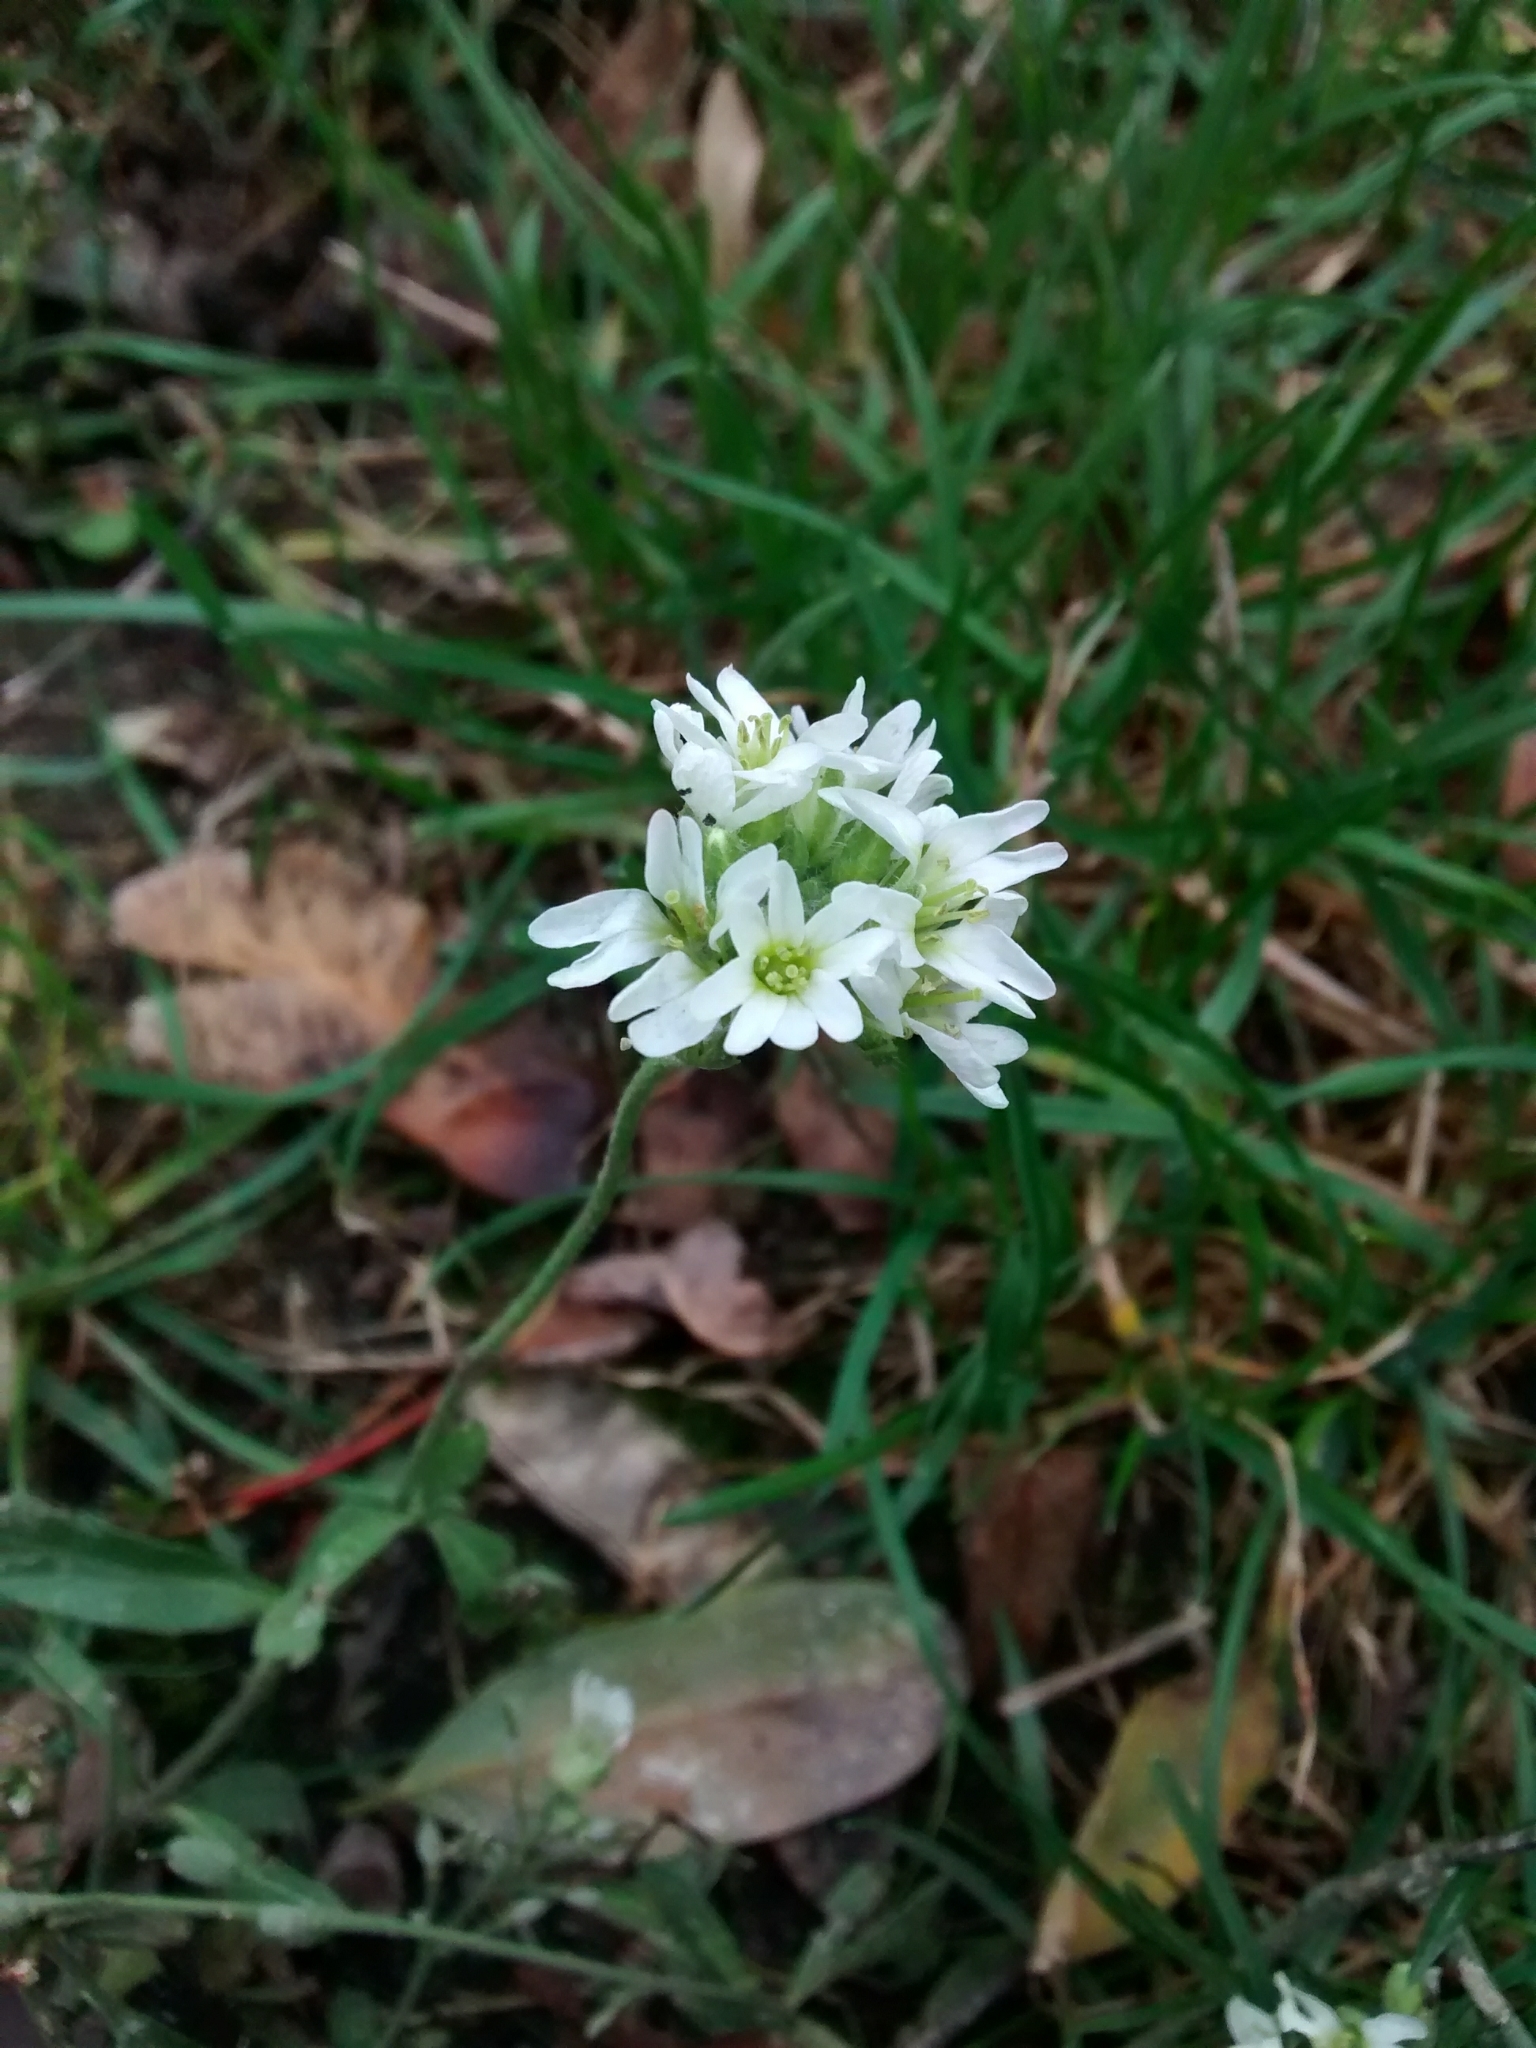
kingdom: Plantae
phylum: Tracheophyta
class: Magnoliopsida
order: Brassicales
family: Brassicaceae
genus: Berteroa
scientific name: Berteroa incana
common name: Hoary alison
